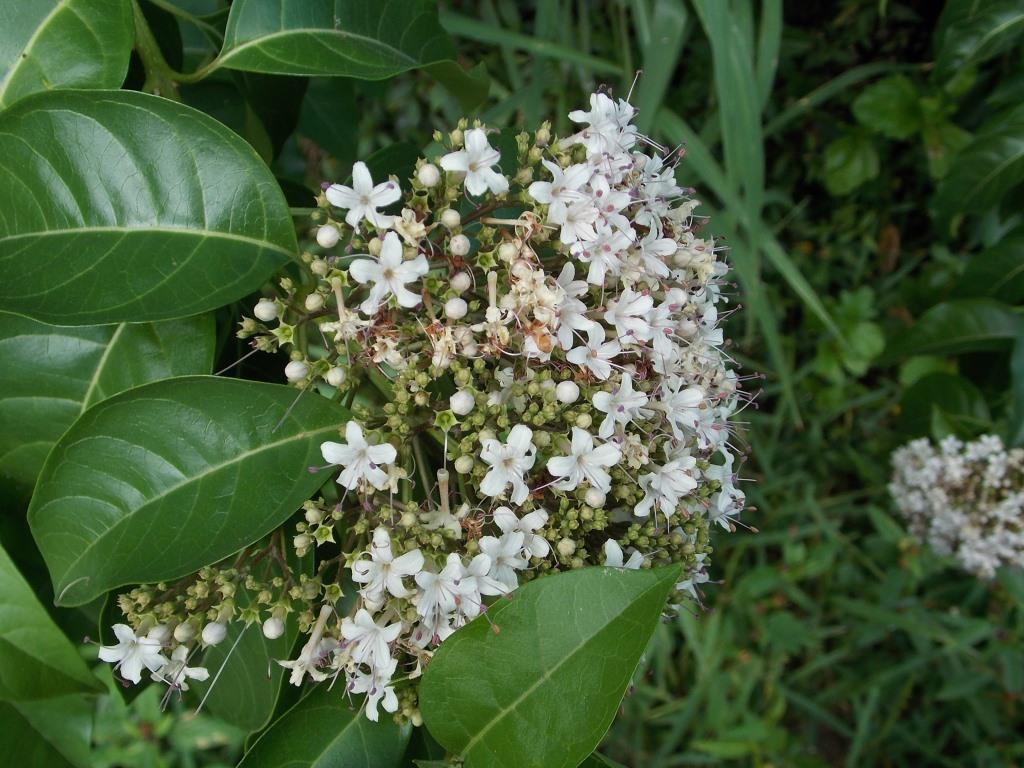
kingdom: Plantae
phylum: Tracheophyta
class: Magnoliopsida
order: Lamiales
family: Lamiaceae
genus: Volkameria
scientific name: Volkameria glabra
